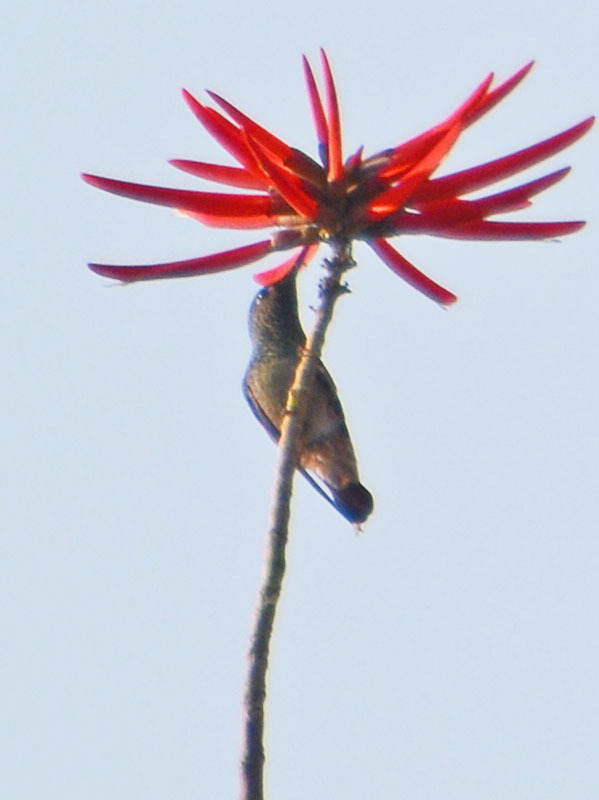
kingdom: Animalia
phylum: Chordata
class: Aves
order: Apodiformes
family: Trochilidae
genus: Saucerottia
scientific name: Saucerottia beryllina
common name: Berylline hummingbird
